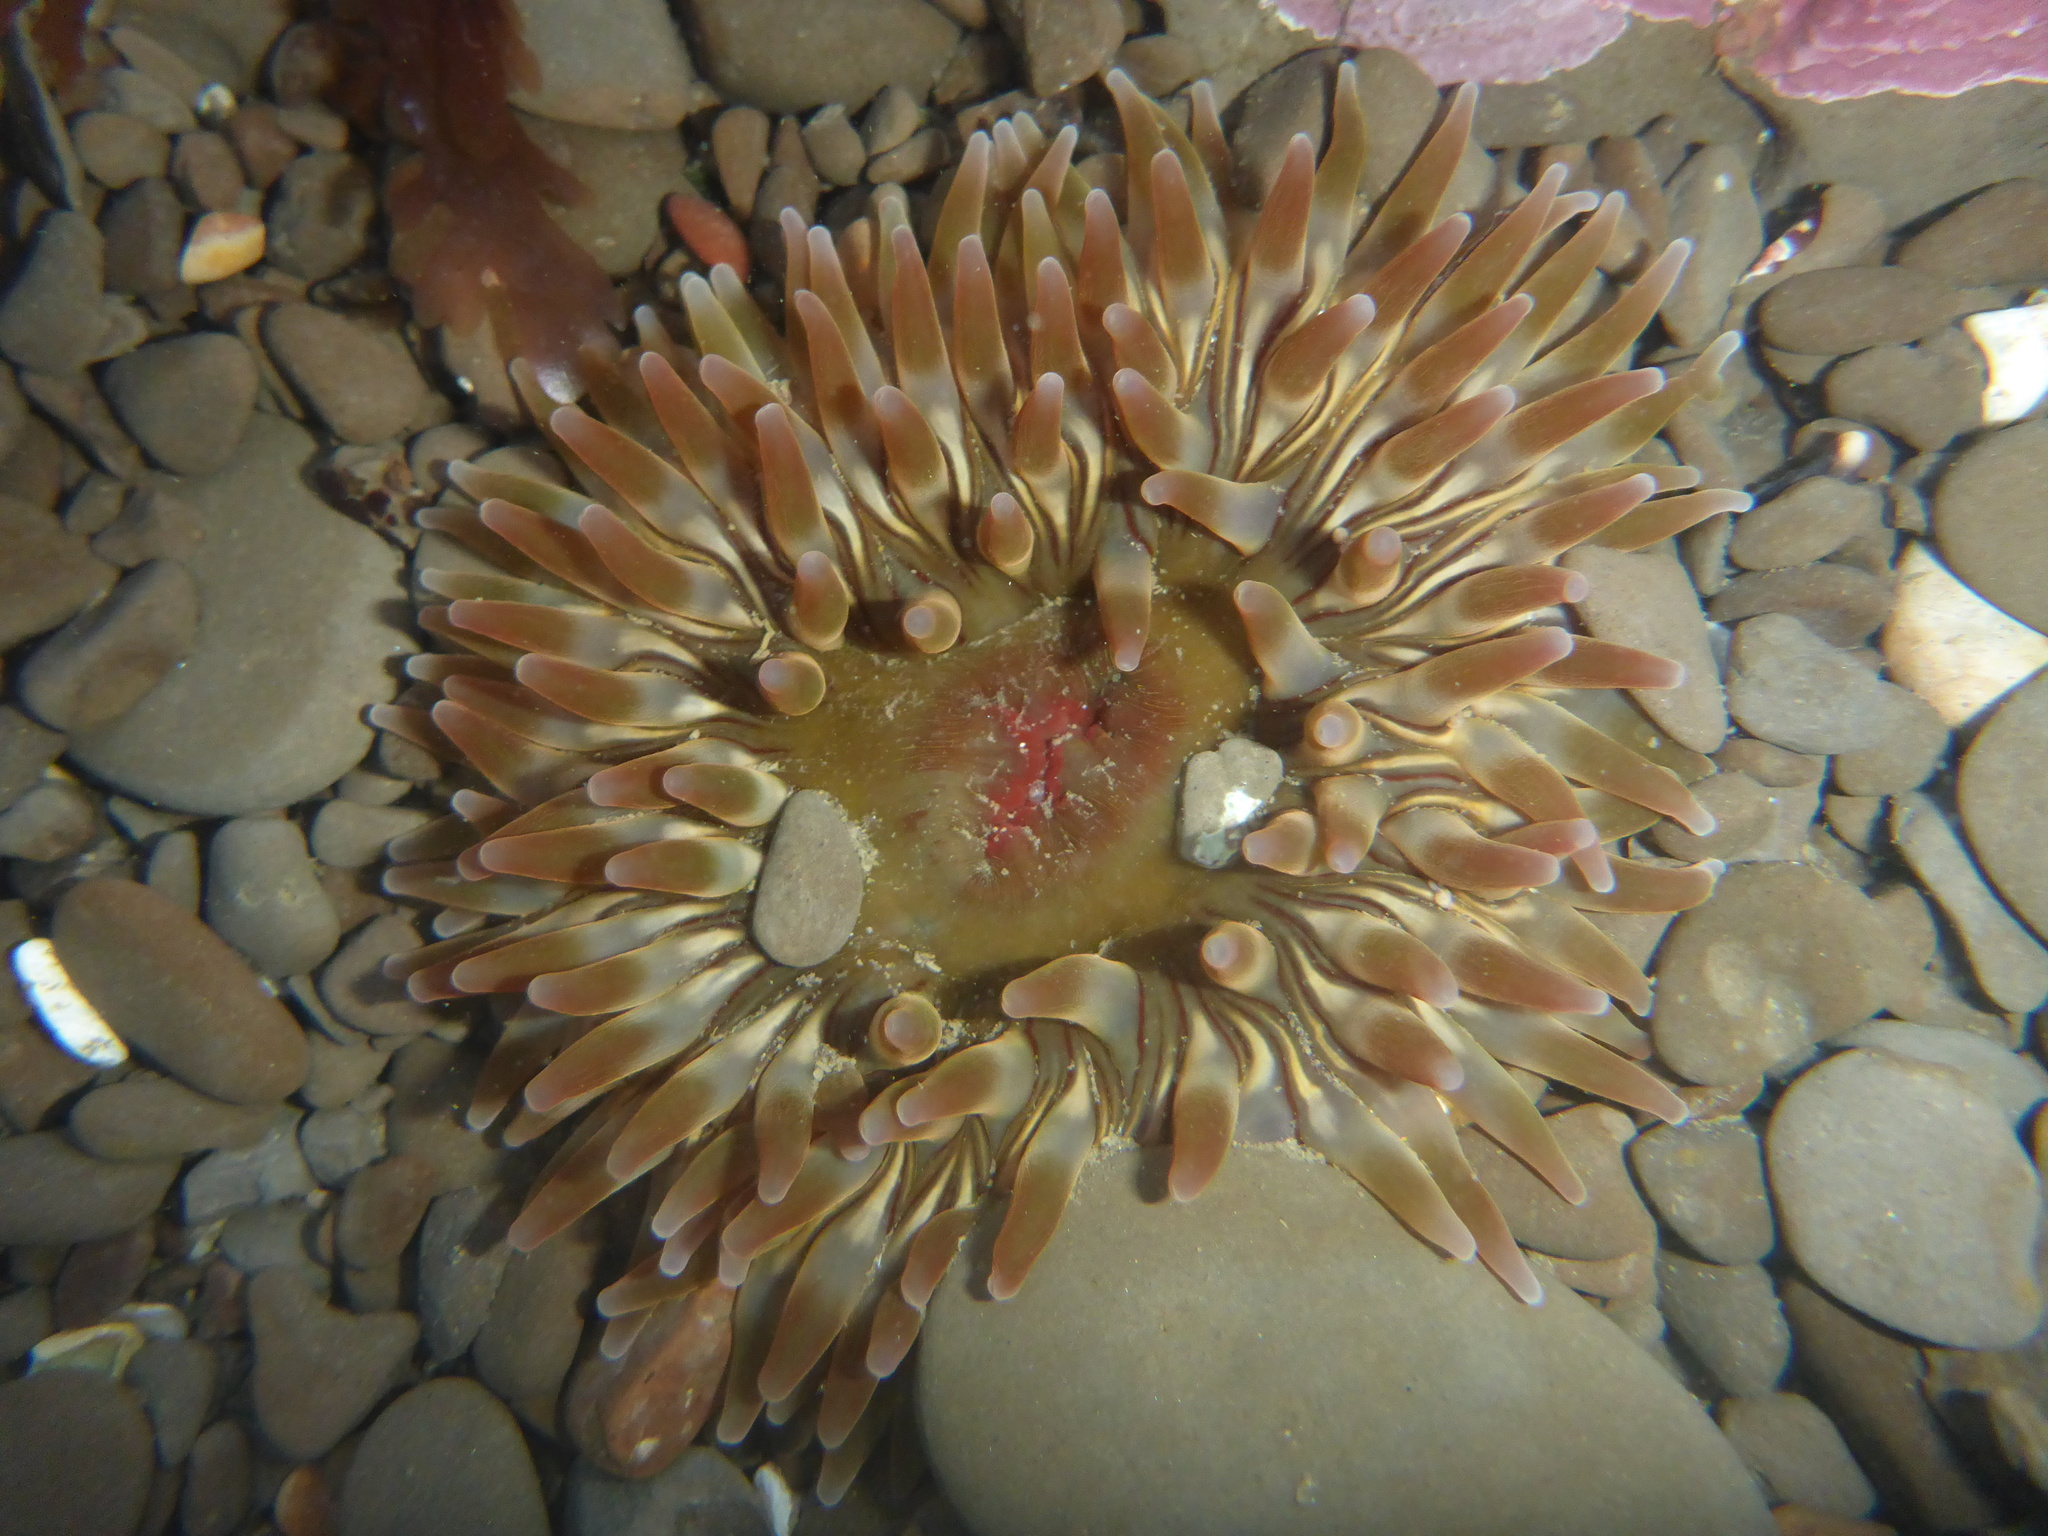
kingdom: Animalia
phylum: Cnidaria
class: Anthozoa
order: Actiniaria
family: Actiniidae
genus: Urticina
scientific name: Urticina clandestina
